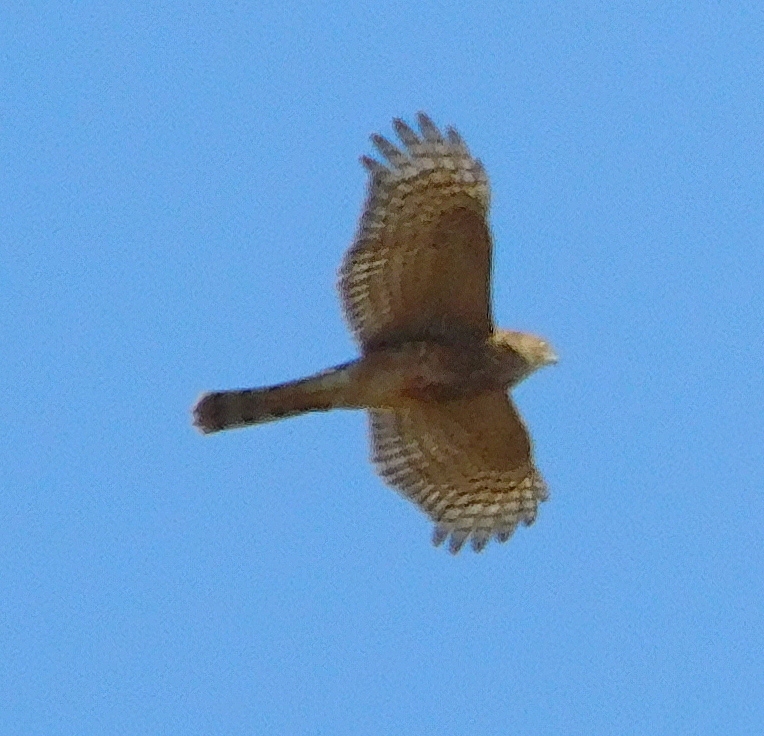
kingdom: Animalia
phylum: Chordata
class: Aves
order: Accipitriformes
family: Accipitridae
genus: Accipiter
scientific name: Accipiter nisus
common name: Eurasian sparrowhawk
